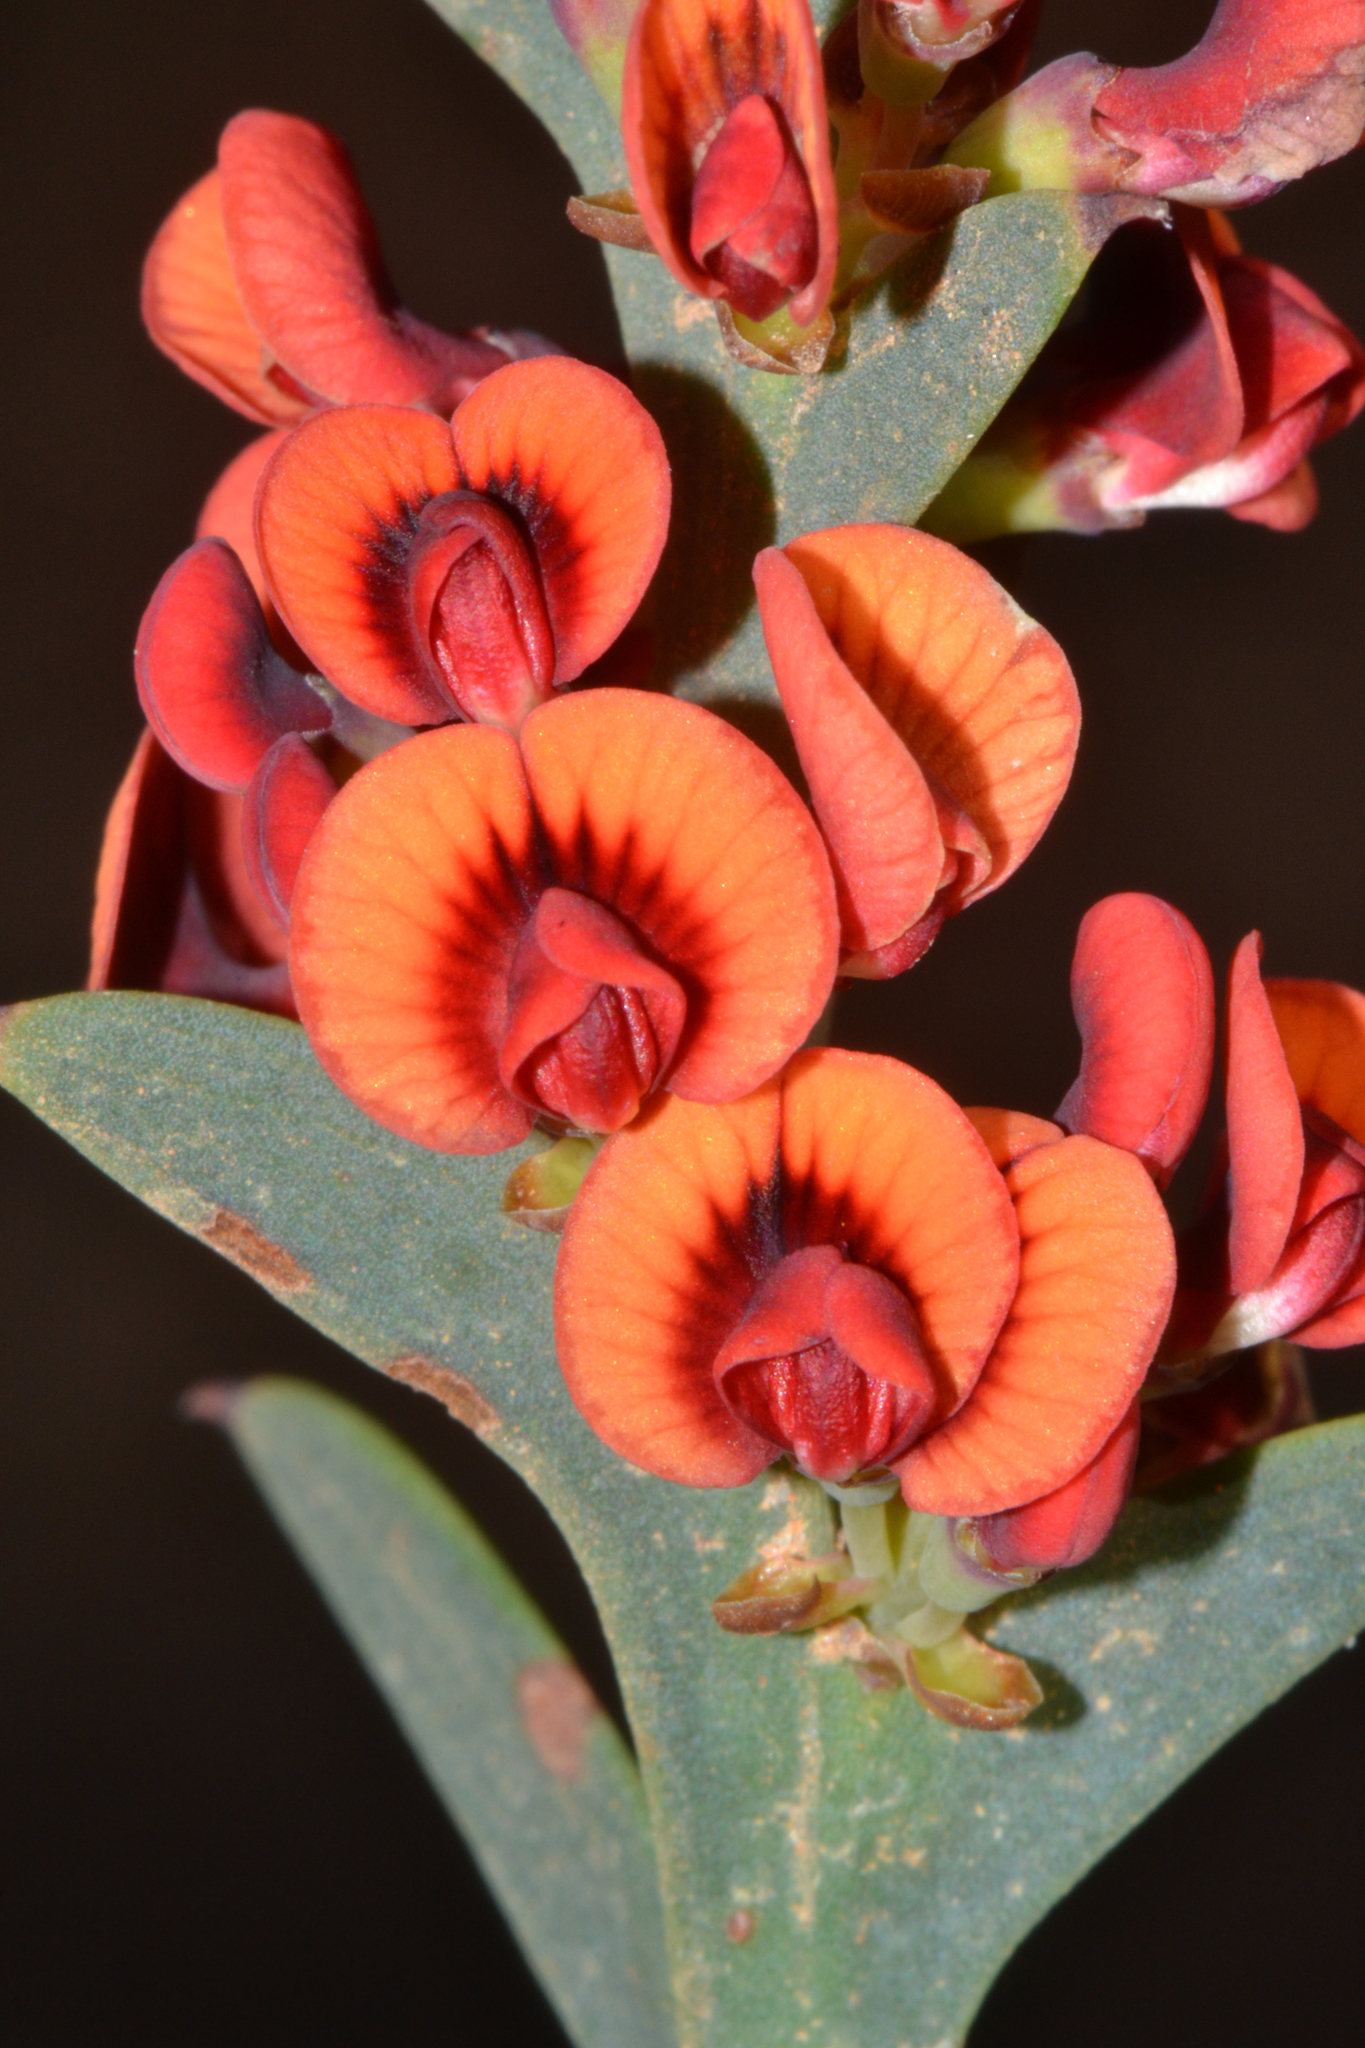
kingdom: Plantae
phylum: Tracheophyta
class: Magnoliopsida
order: Fabales
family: Fabaceae
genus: Daviesia
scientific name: Daviesia decurrens
